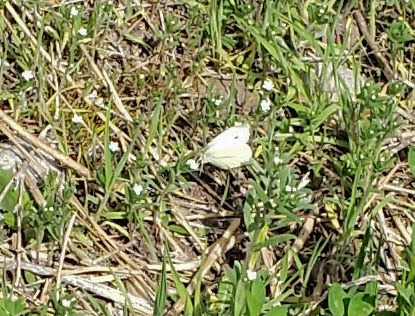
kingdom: Animalia
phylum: Arthropoda
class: Insecta
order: Lepidoptera
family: Pieridae
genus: Pieris
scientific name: Pieris rapae
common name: Small white
